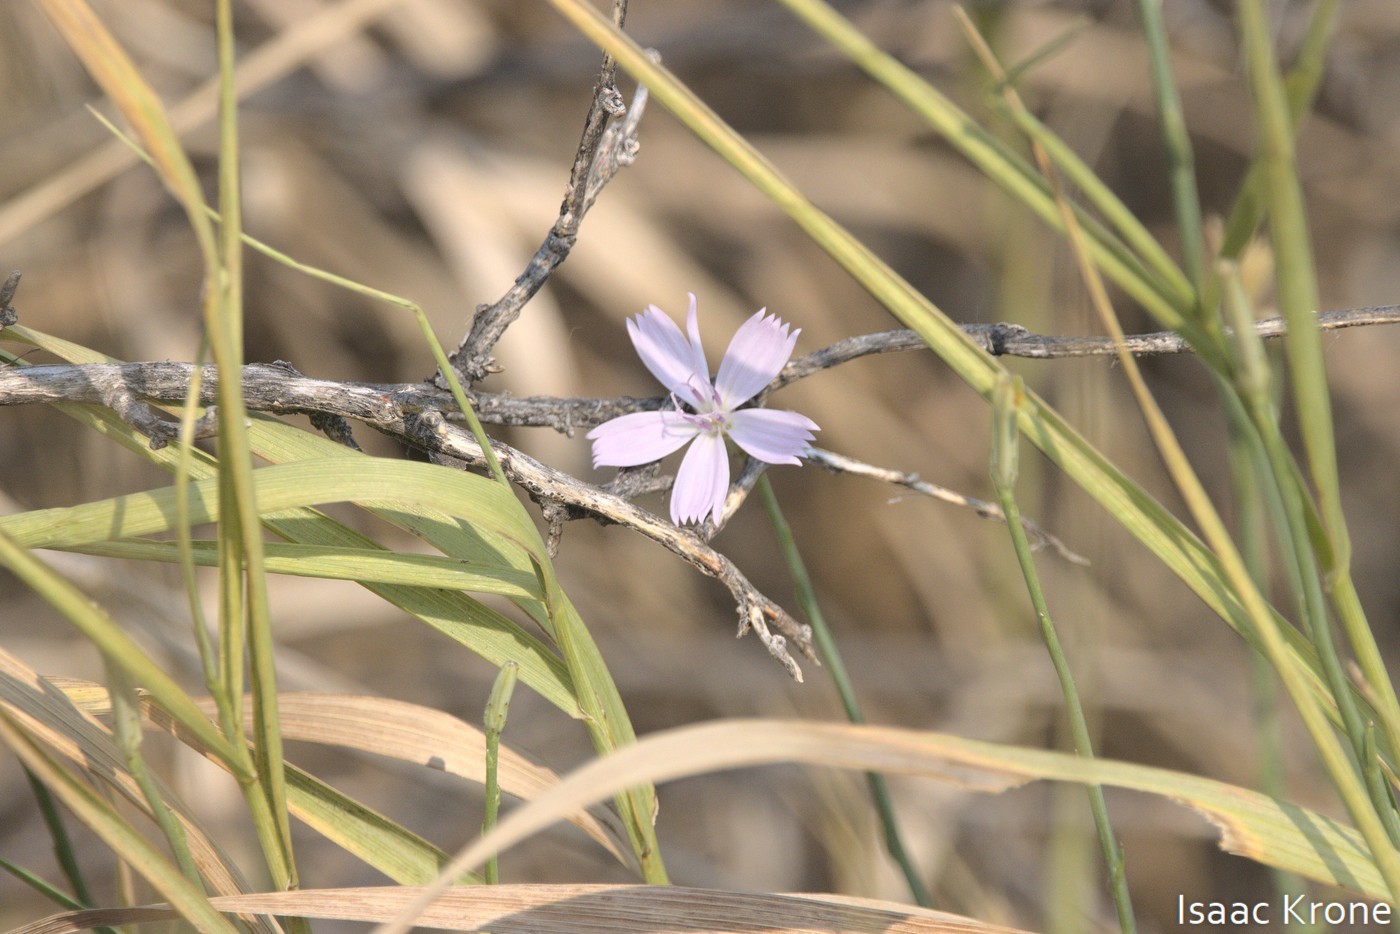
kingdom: Plantae
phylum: Tracheophyta
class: Magnoliopsida
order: Asterales
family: Asteraceae
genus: Lygodesmia
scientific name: Lygodesmia juncea
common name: Common skeletonweed
